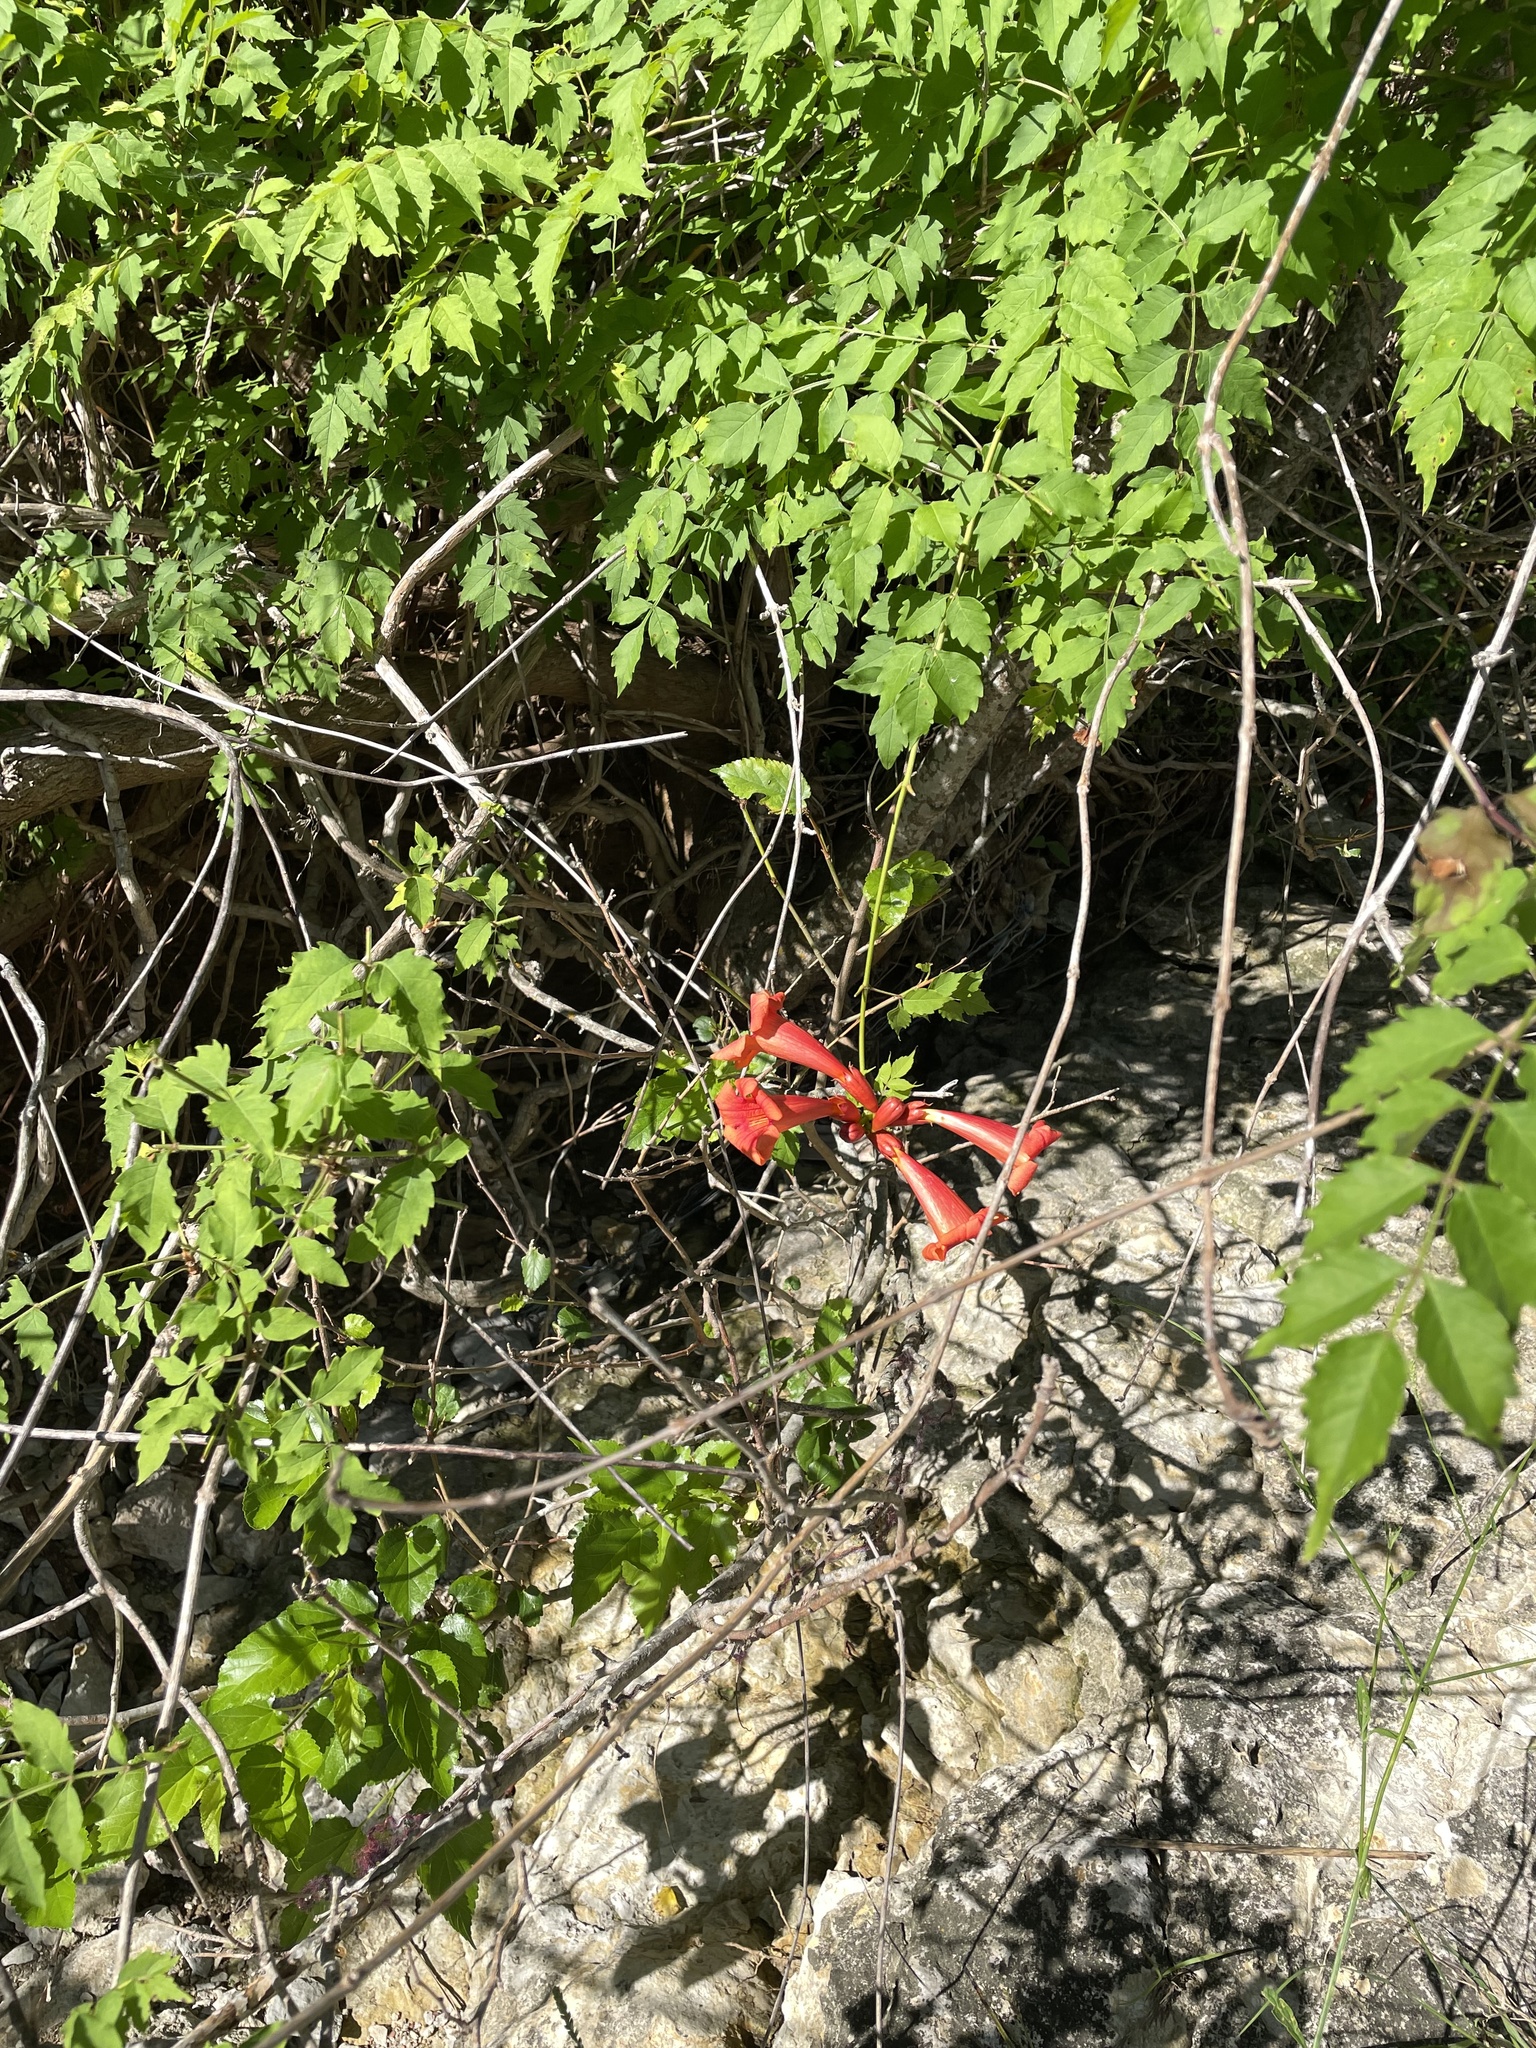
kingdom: Plantae
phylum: Tracheophyta
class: Magnoliopsida
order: Lamiales
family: Bignoniaceae
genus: Campsis
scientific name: Campsis radicans
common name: Trumpet-creeper
